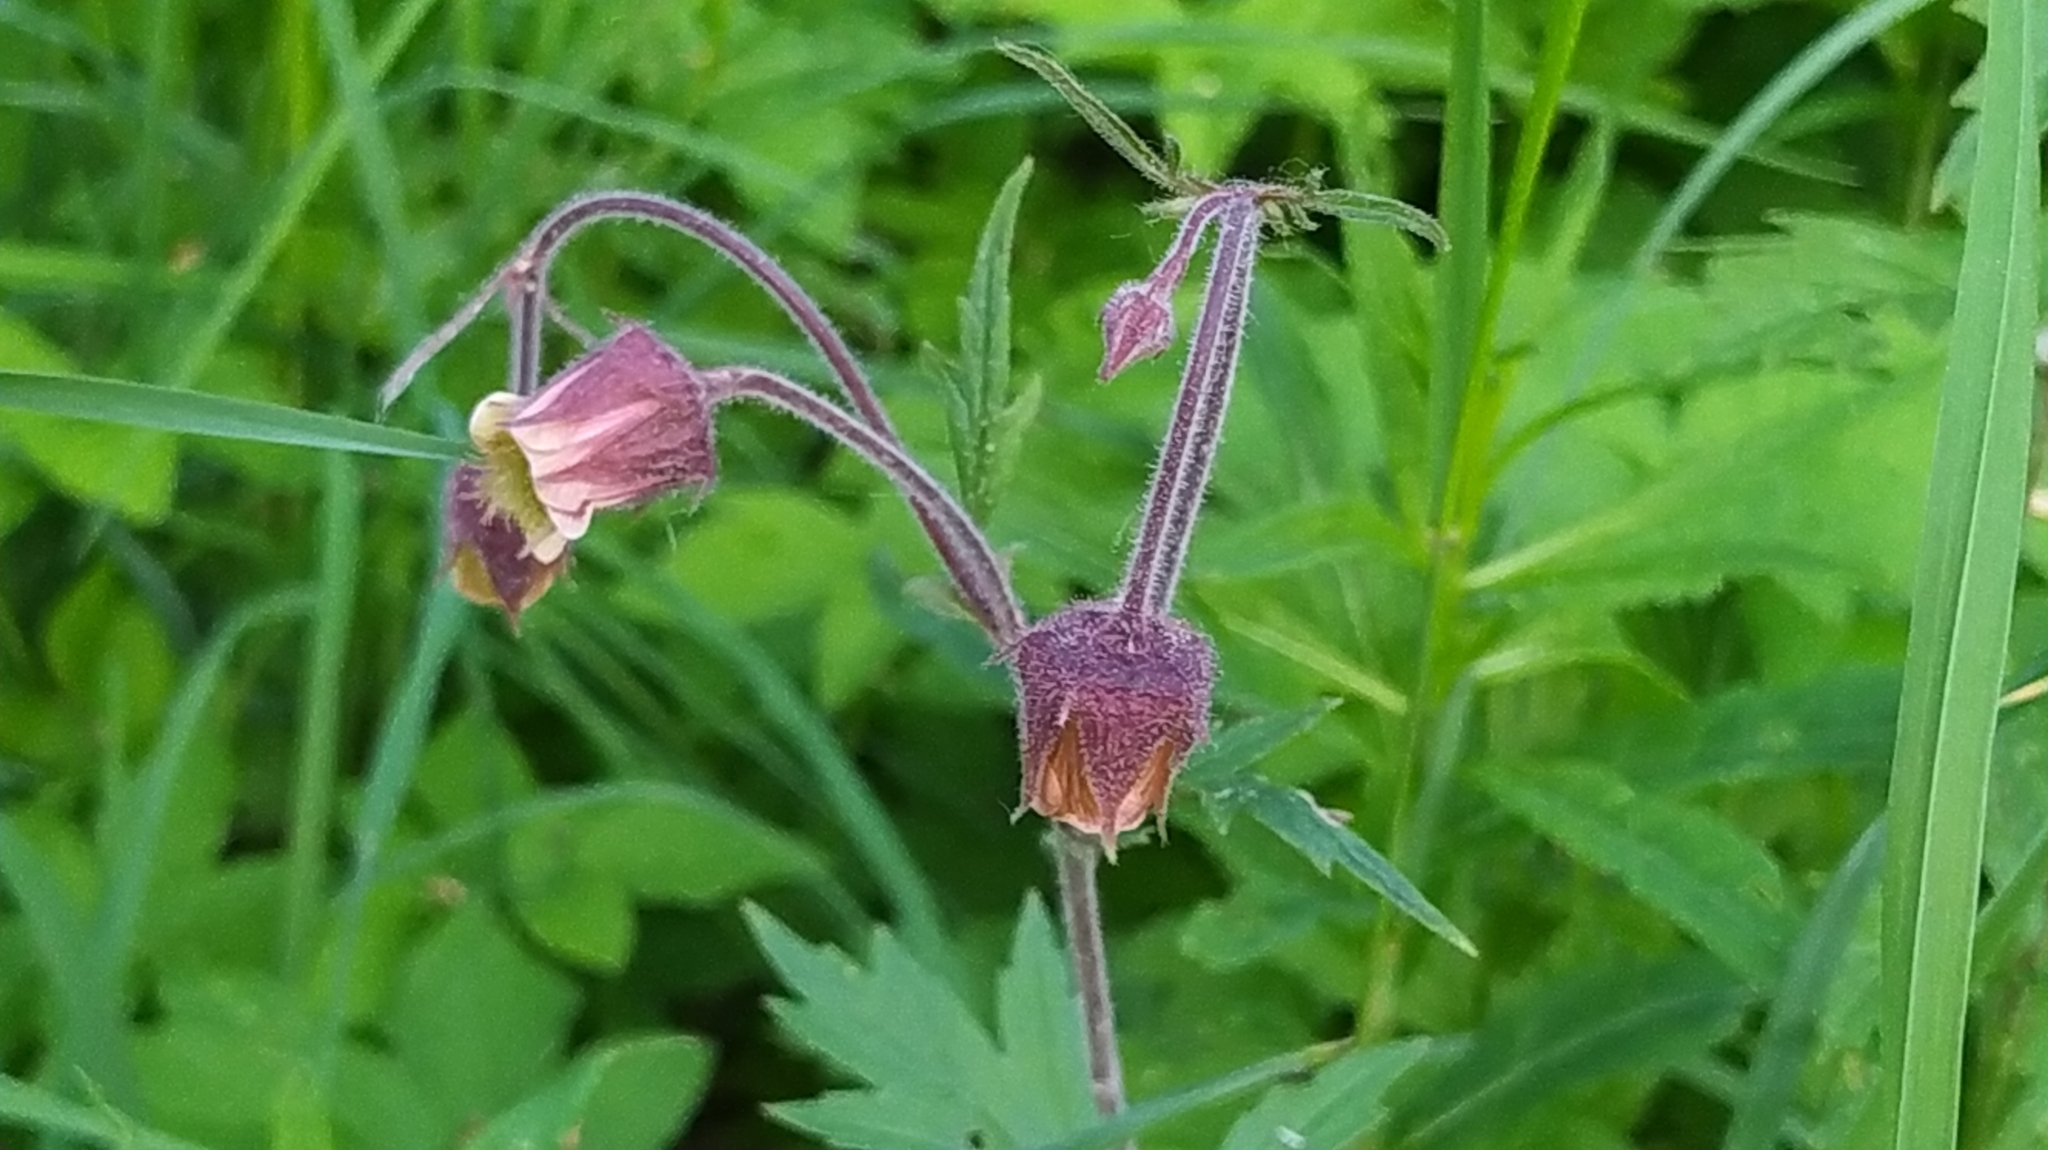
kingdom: Plantae
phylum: Tracheophyta
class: Magnoliopsida
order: Rosales
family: Rosaceae
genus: Geum
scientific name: Geum rivale
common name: Water avens
